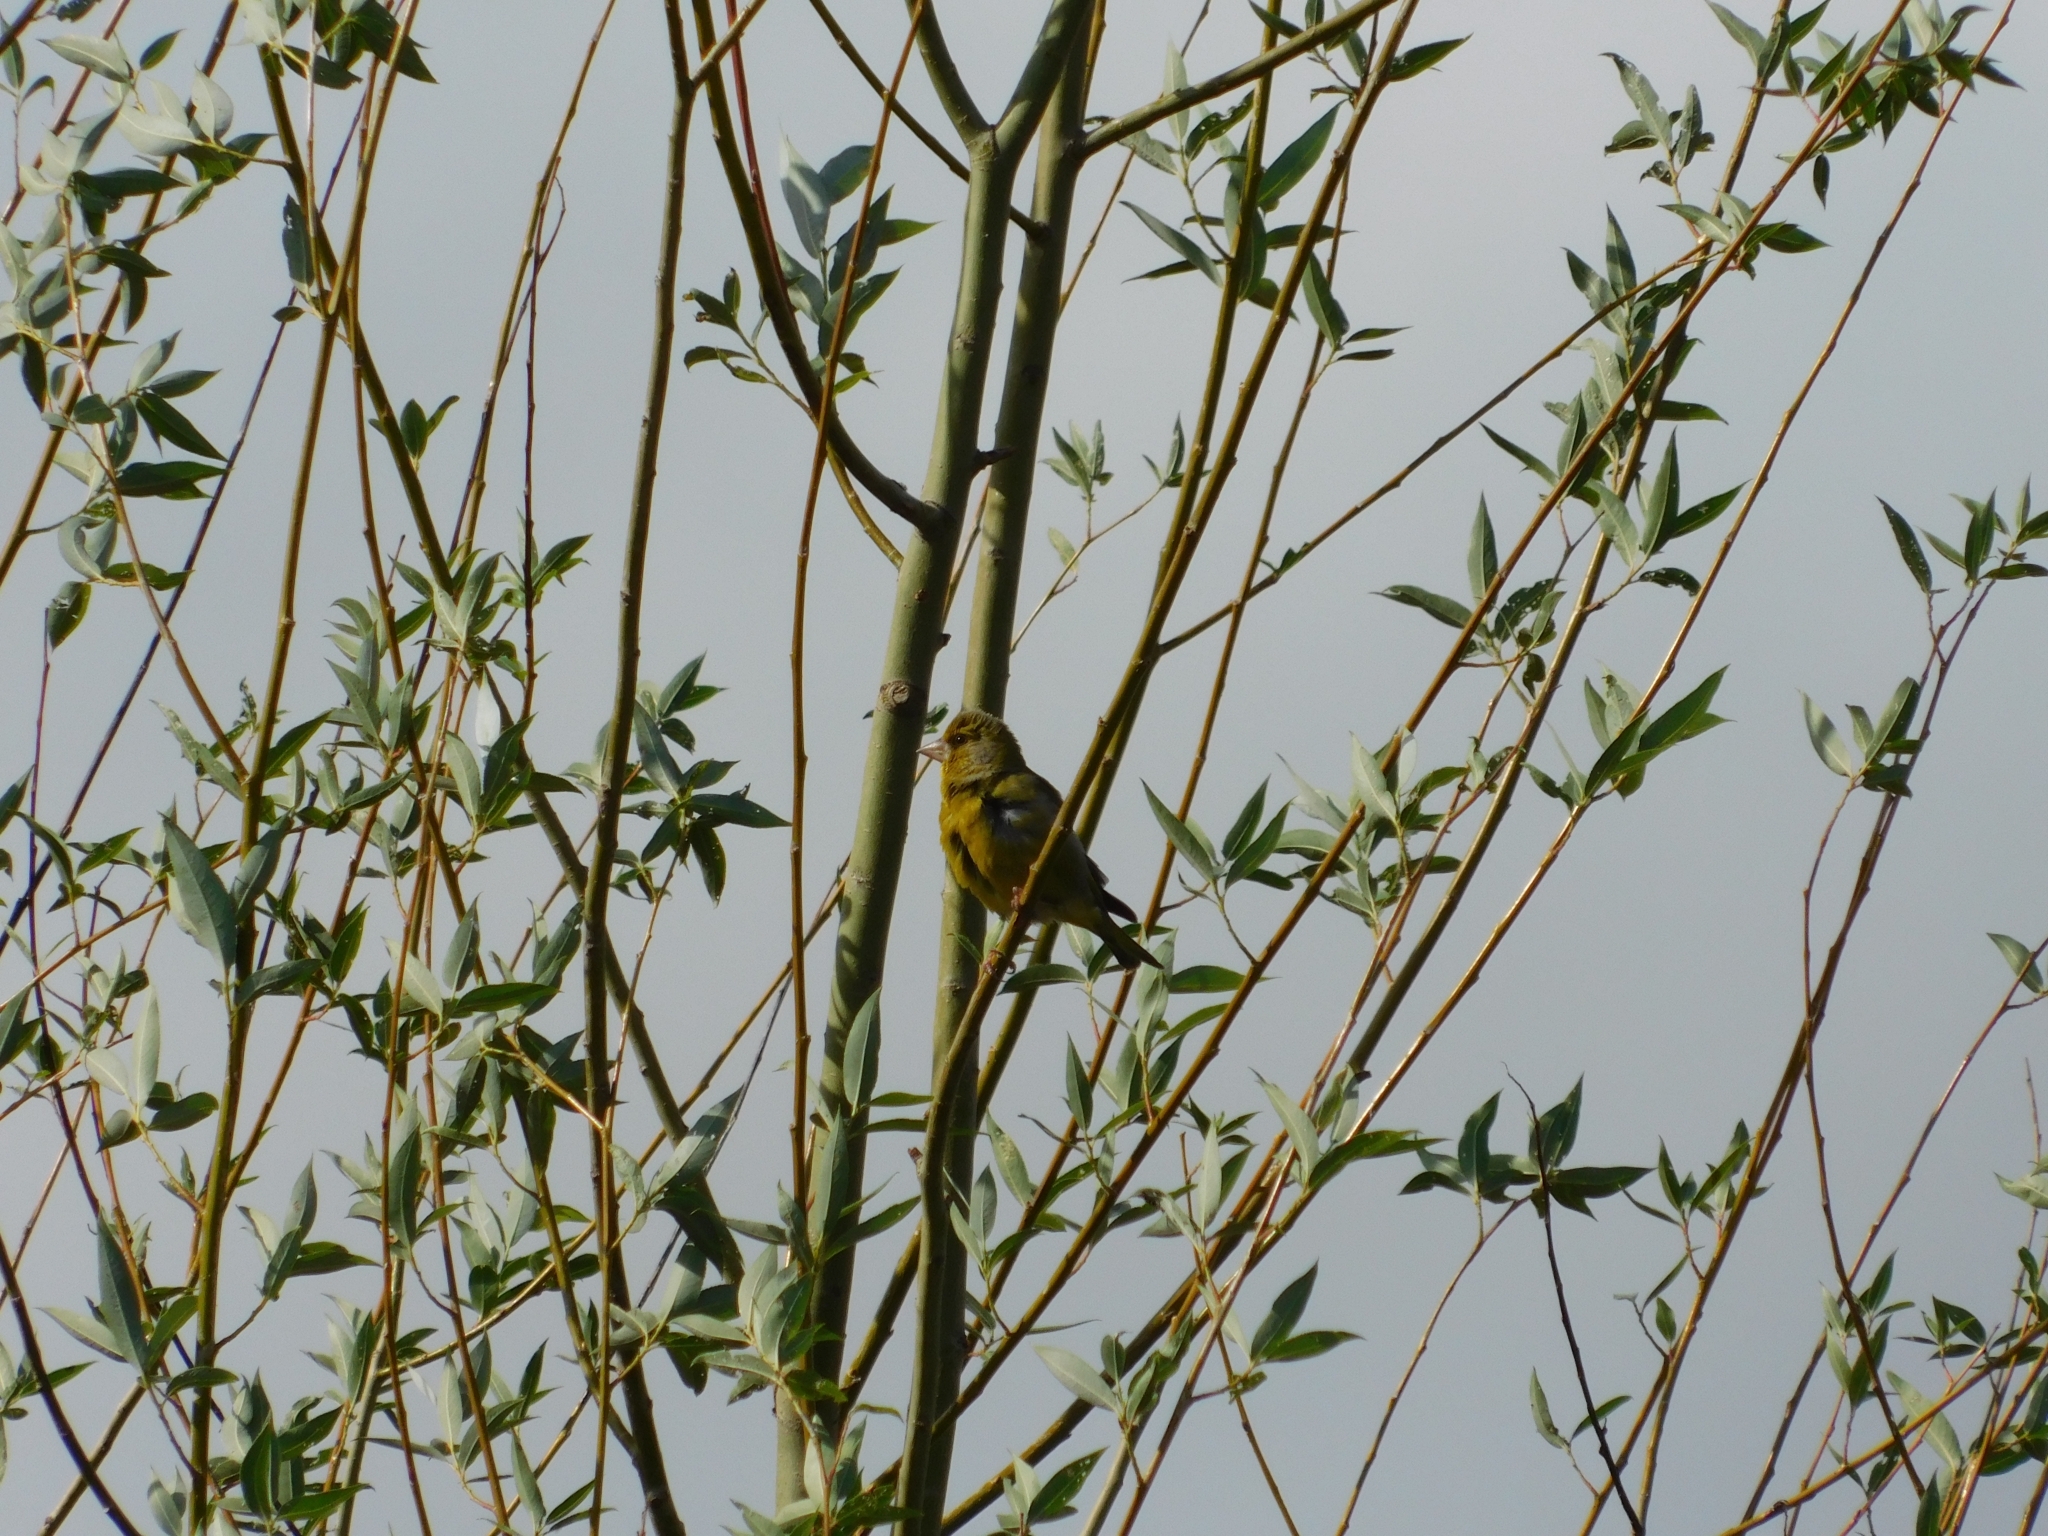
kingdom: Plantae
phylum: Tracheophyta
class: Liliopsida
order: Poales
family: Poaceae
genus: Chloris
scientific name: Chloris chloris
